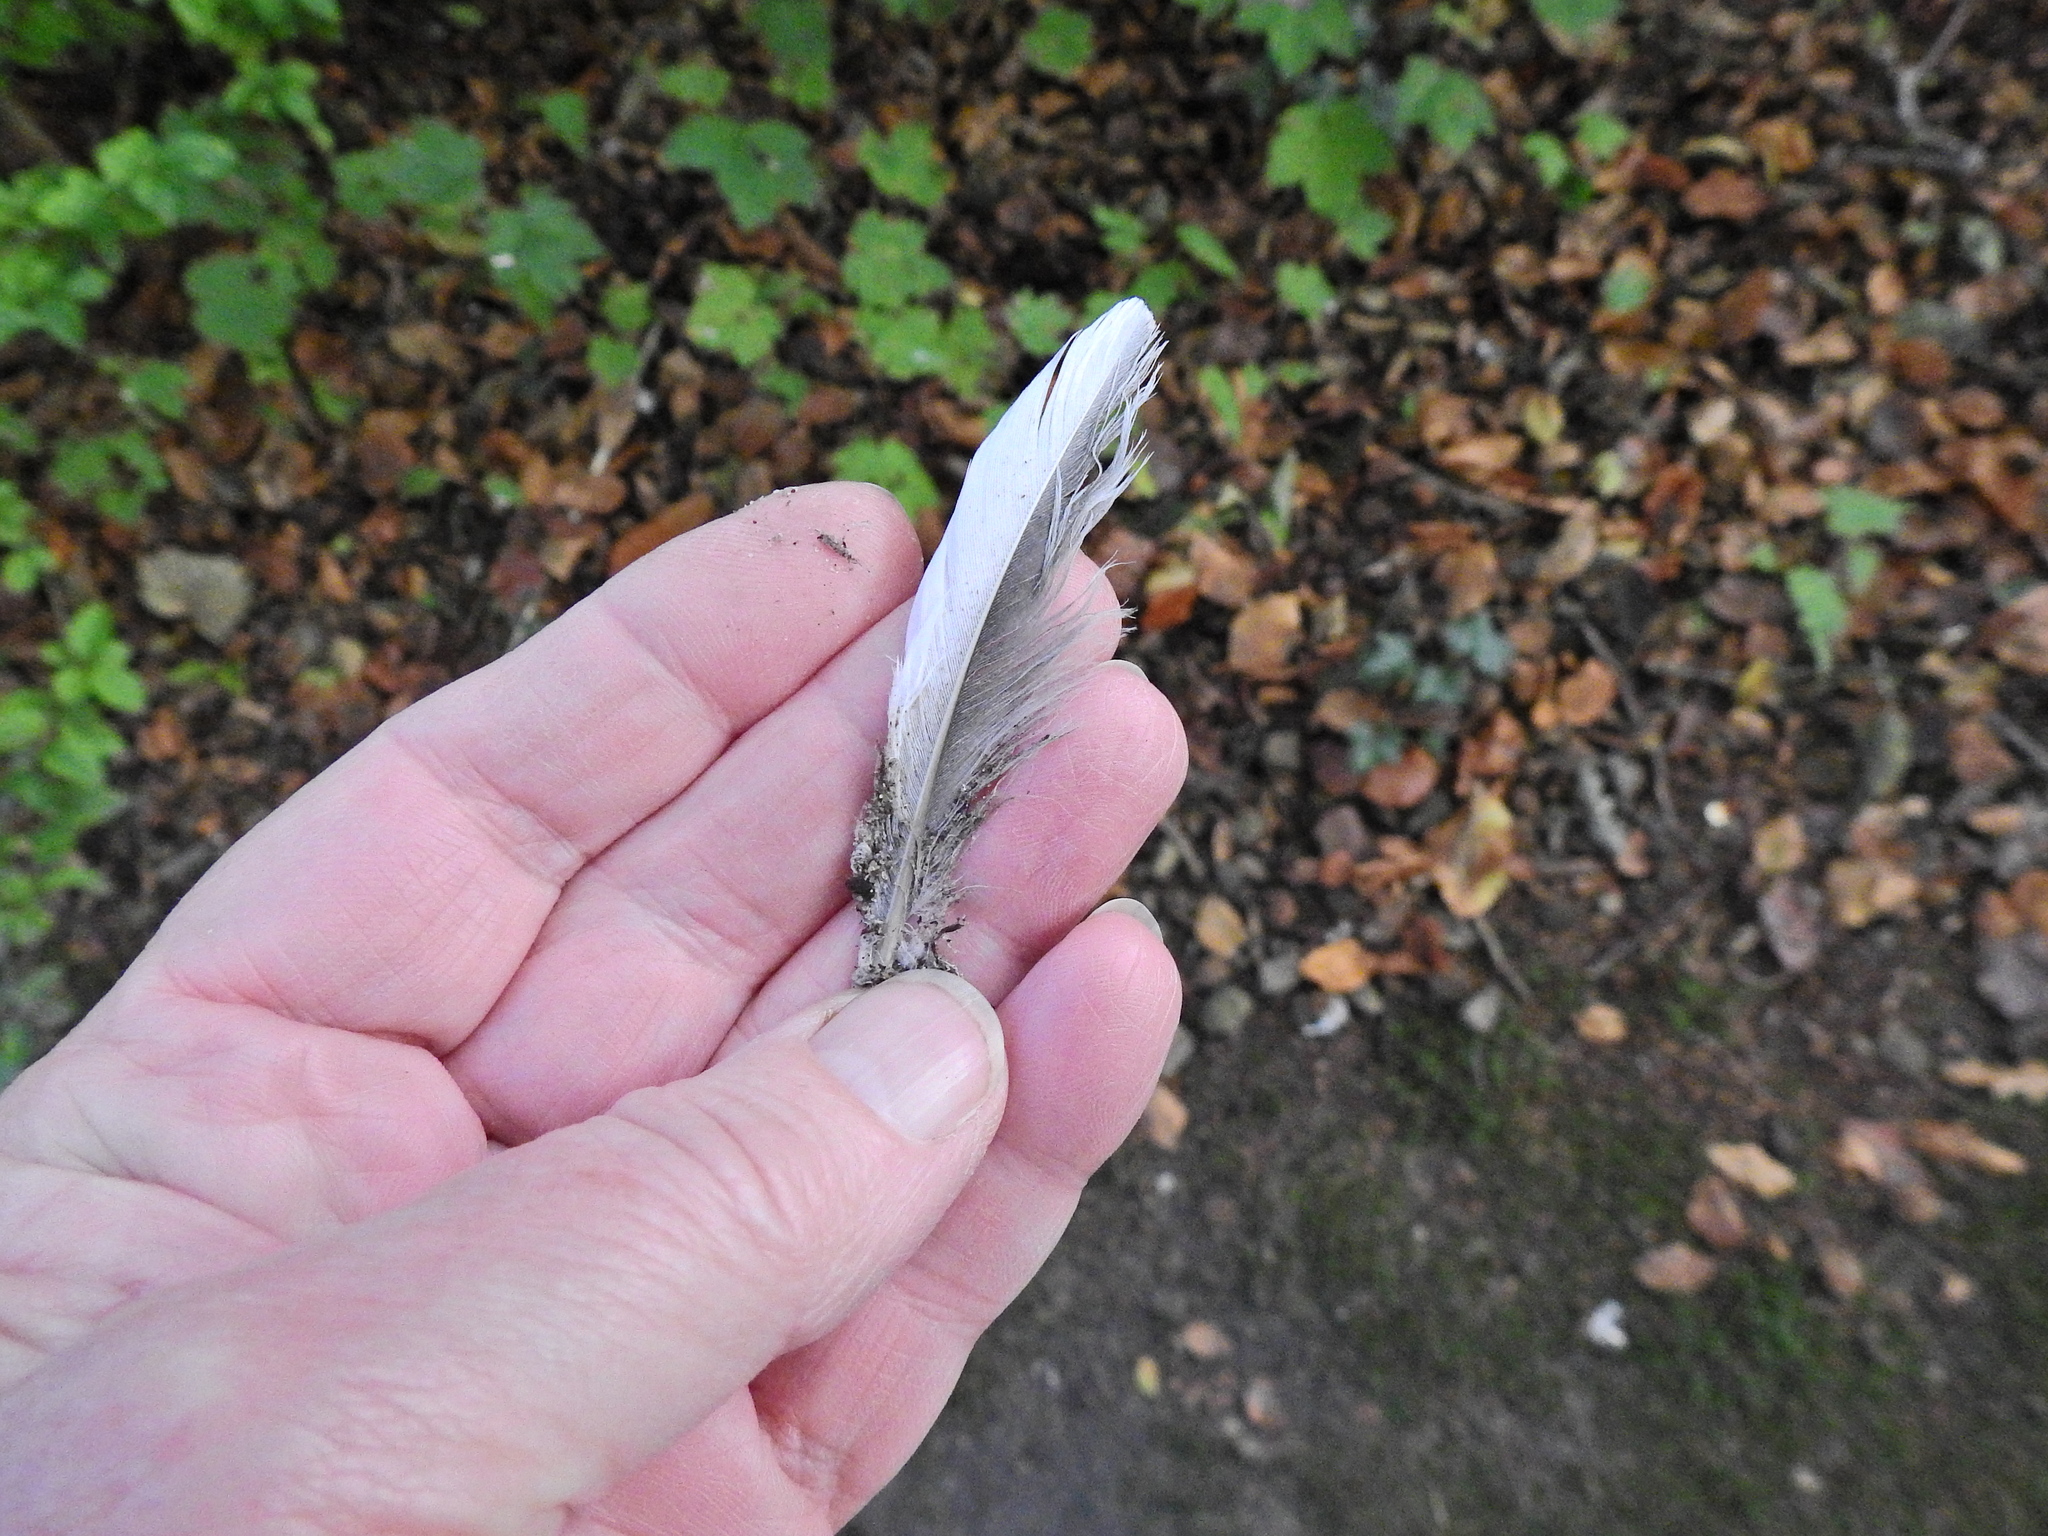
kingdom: Animalia
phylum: Chordata
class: Aves
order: Columbiformes
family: Columbidae
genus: Columba
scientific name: Columba palumbus
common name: Common wood pigeon
